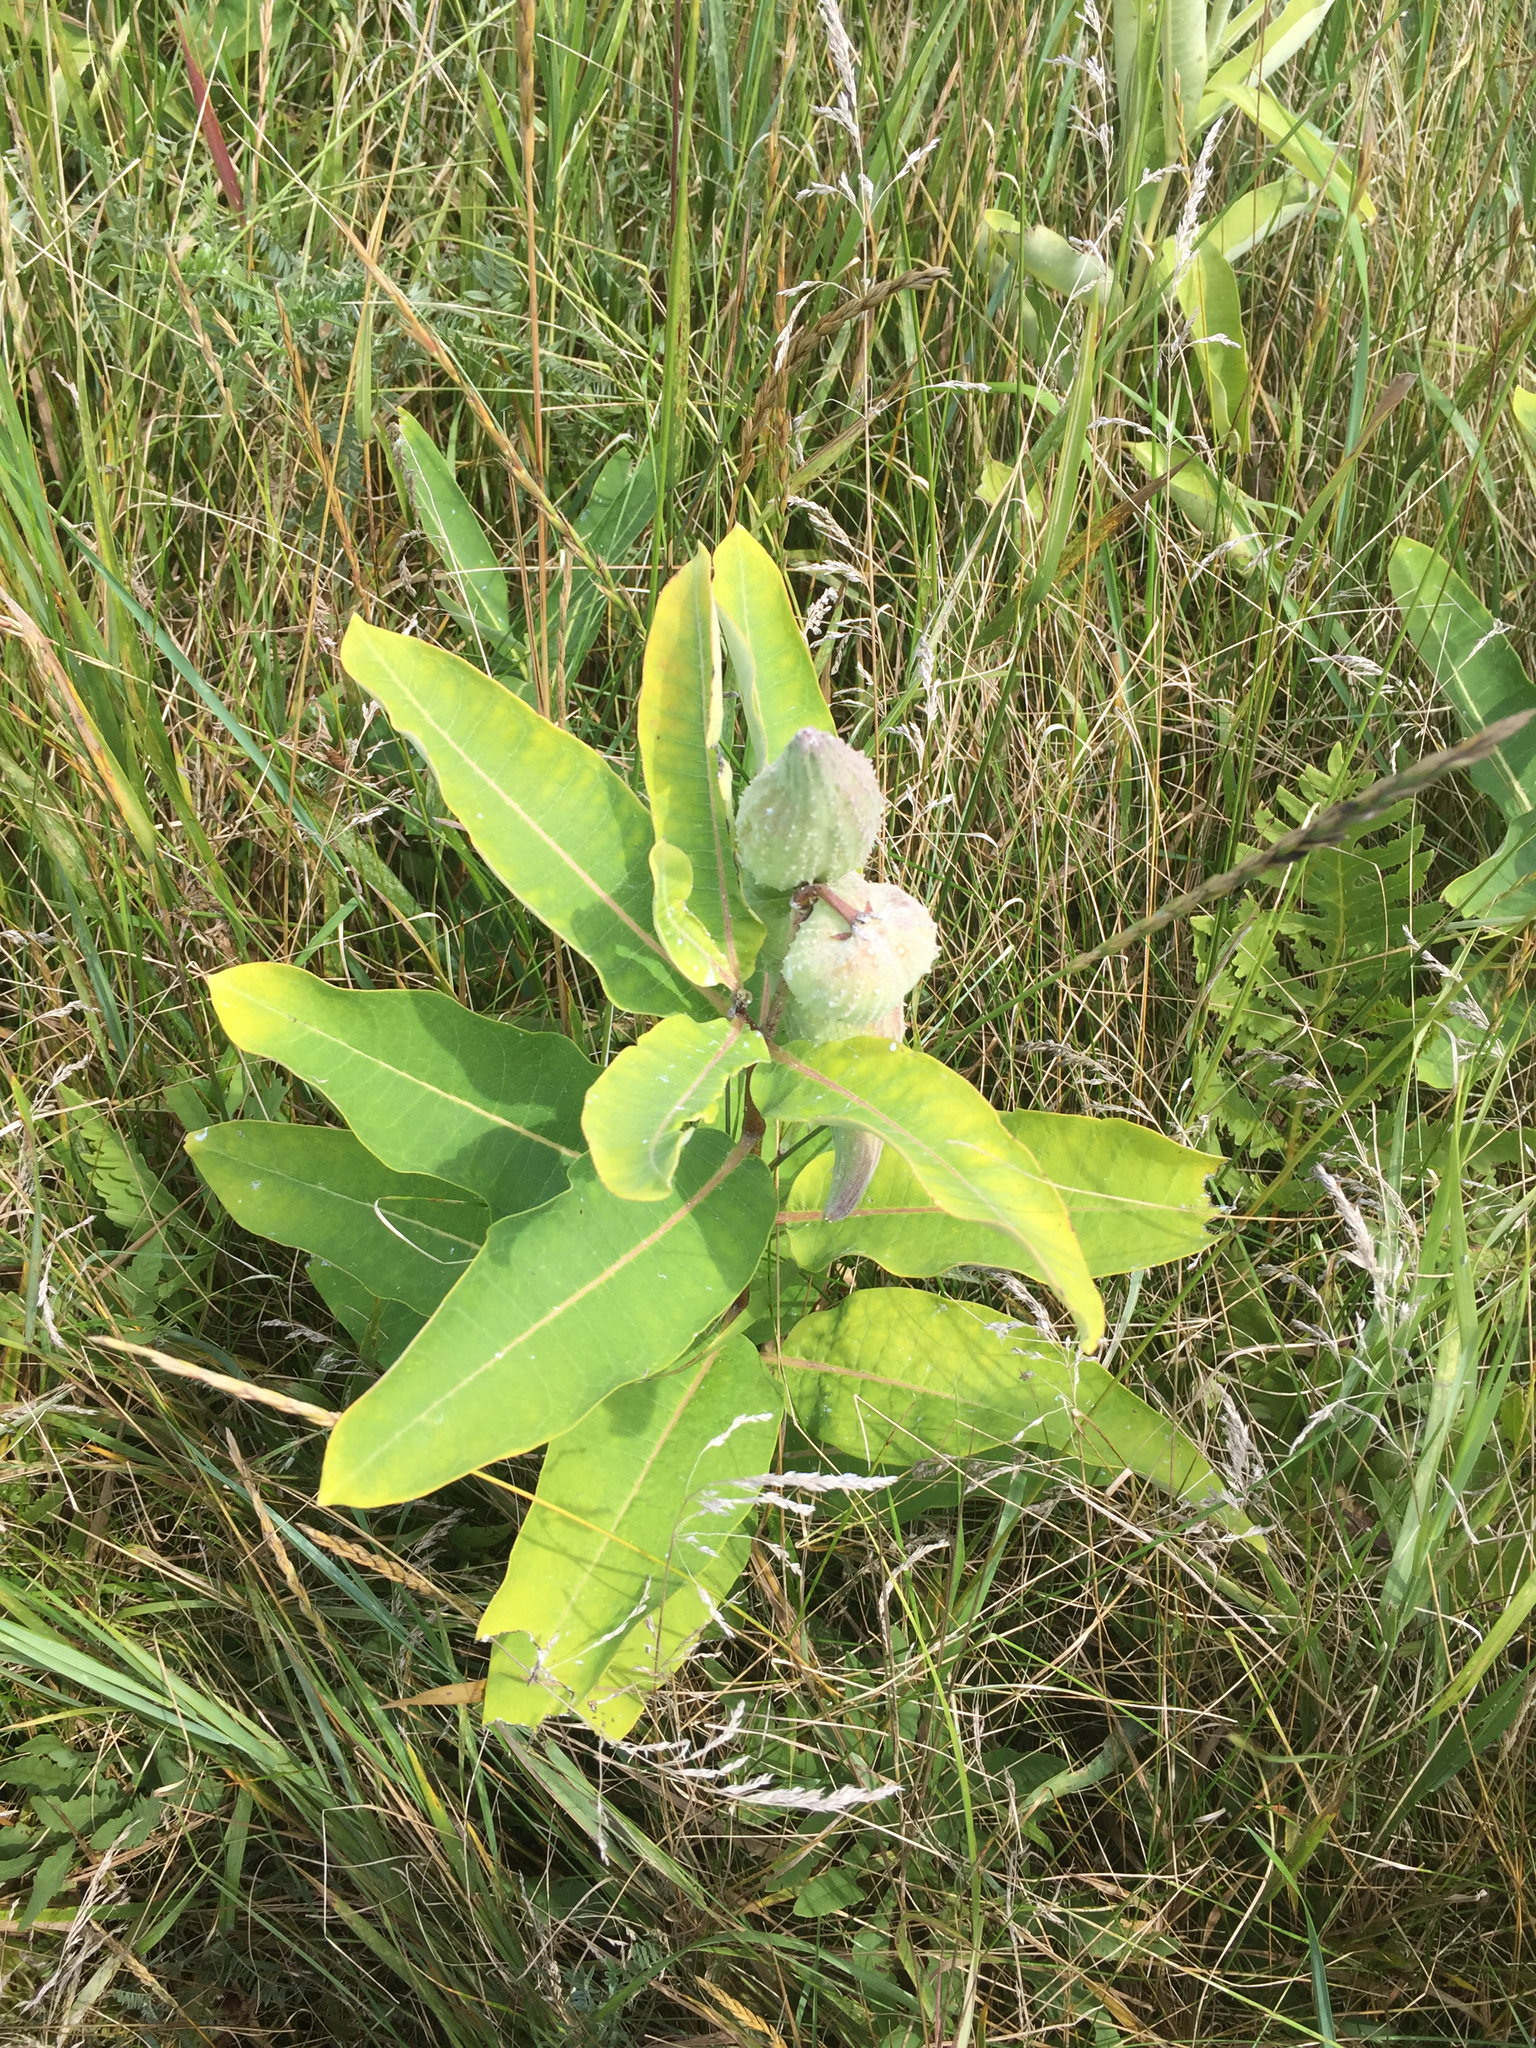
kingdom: Plantae
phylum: Tracheophyta
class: Magnoliopsida
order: Gentianales
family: Apocynaceae
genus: Asclepias
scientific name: Asclepias syriaca
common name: Common milkweed
